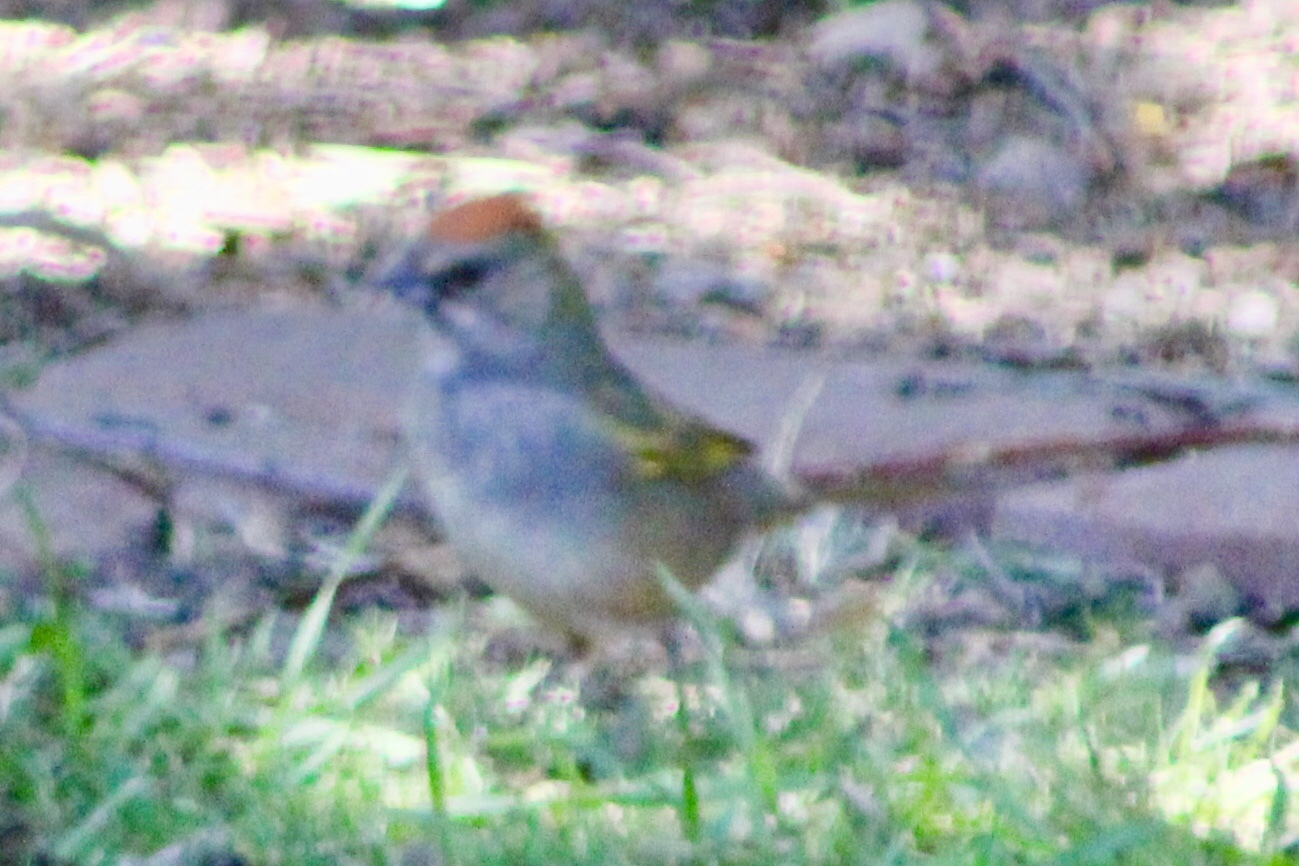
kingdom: Animalia
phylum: Chordata
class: Aves
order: Passeriformes
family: Passerellidae
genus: Pipilo
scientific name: Pipilo chlorurus
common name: Green-tailed towhee
